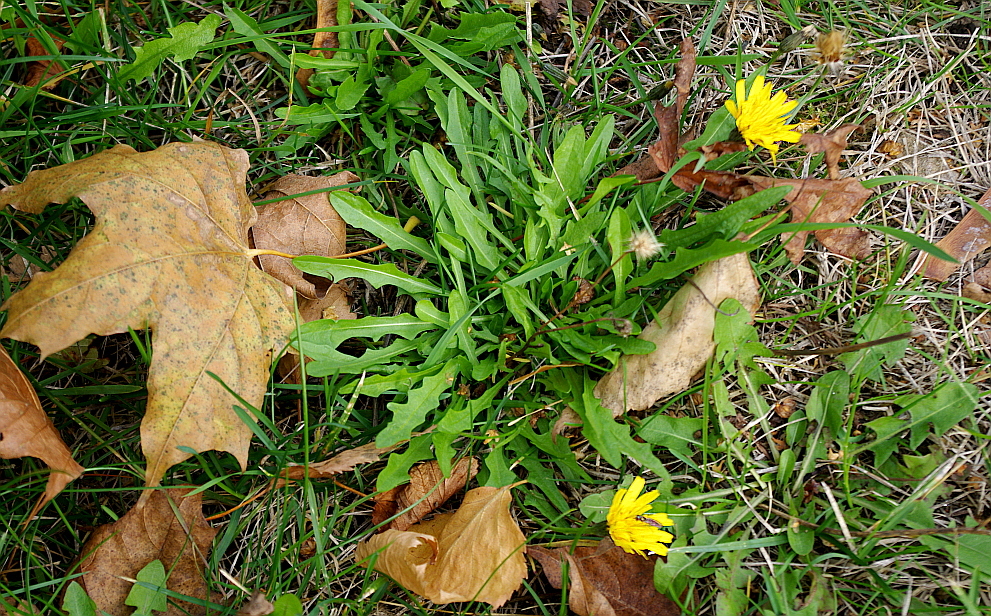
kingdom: Plantae
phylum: Tracheophyta
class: Magnoliopsida
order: Asterales
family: Asteraceae
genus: Scorzoneroides
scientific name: Scorzoneroides autumnalis
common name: Autumn hawkbit
